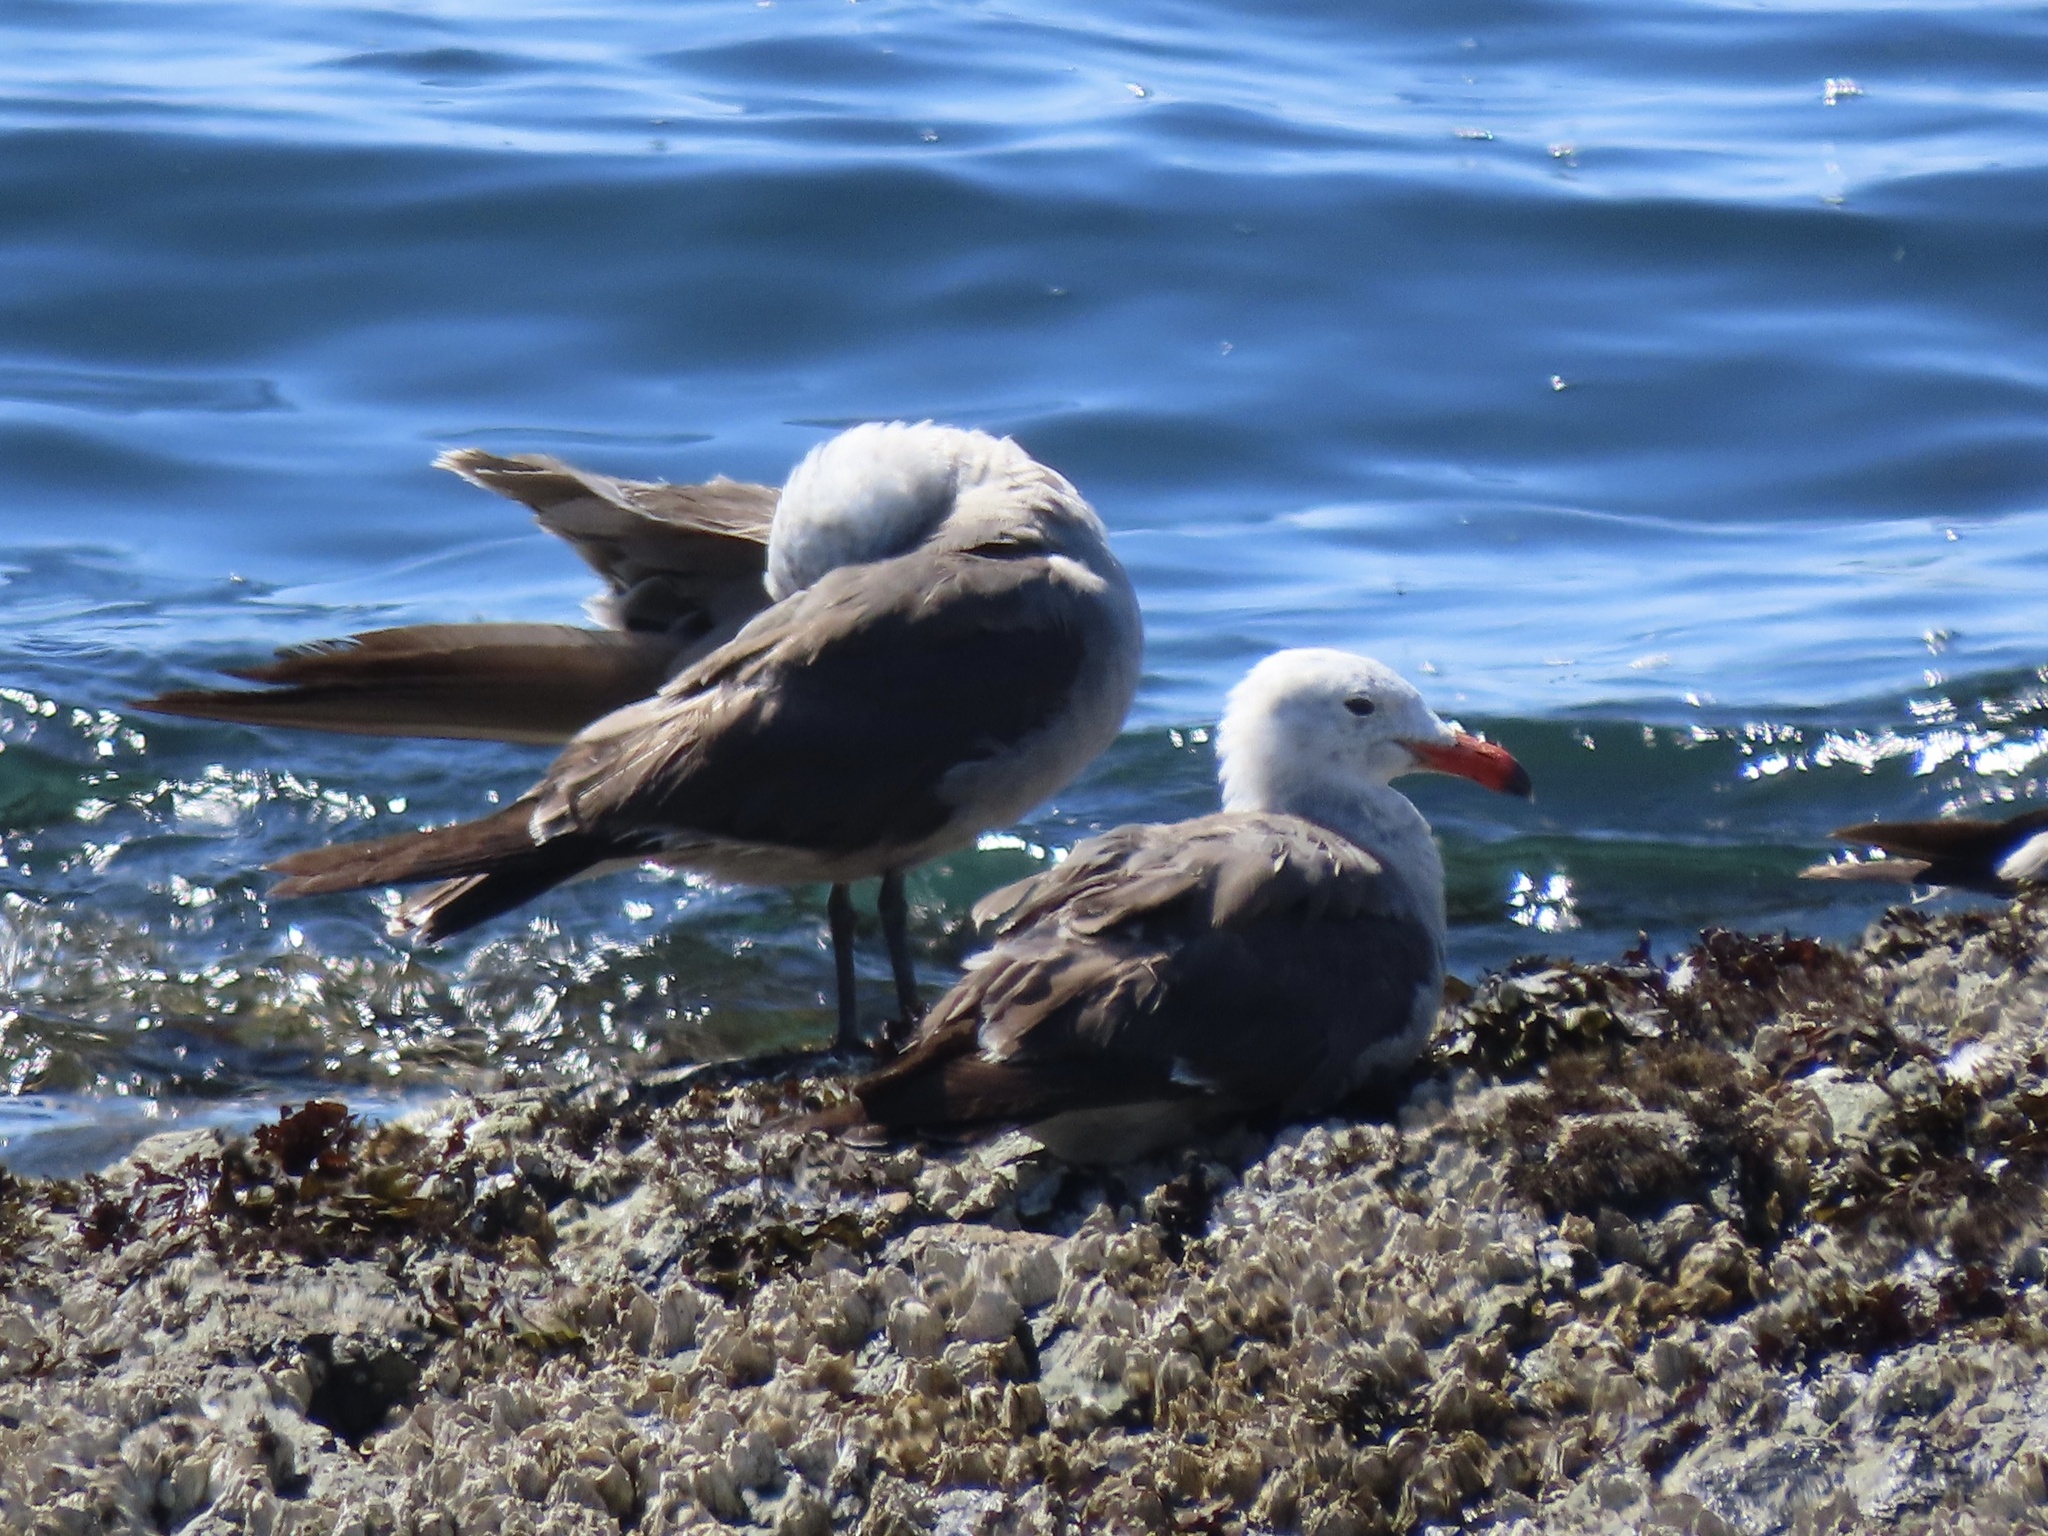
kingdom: Animalia
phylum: Chordata
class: Aves
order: Charadriiformes
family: Laridae
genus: Larus
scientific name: Larus heermanni
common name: Heermann's gull
